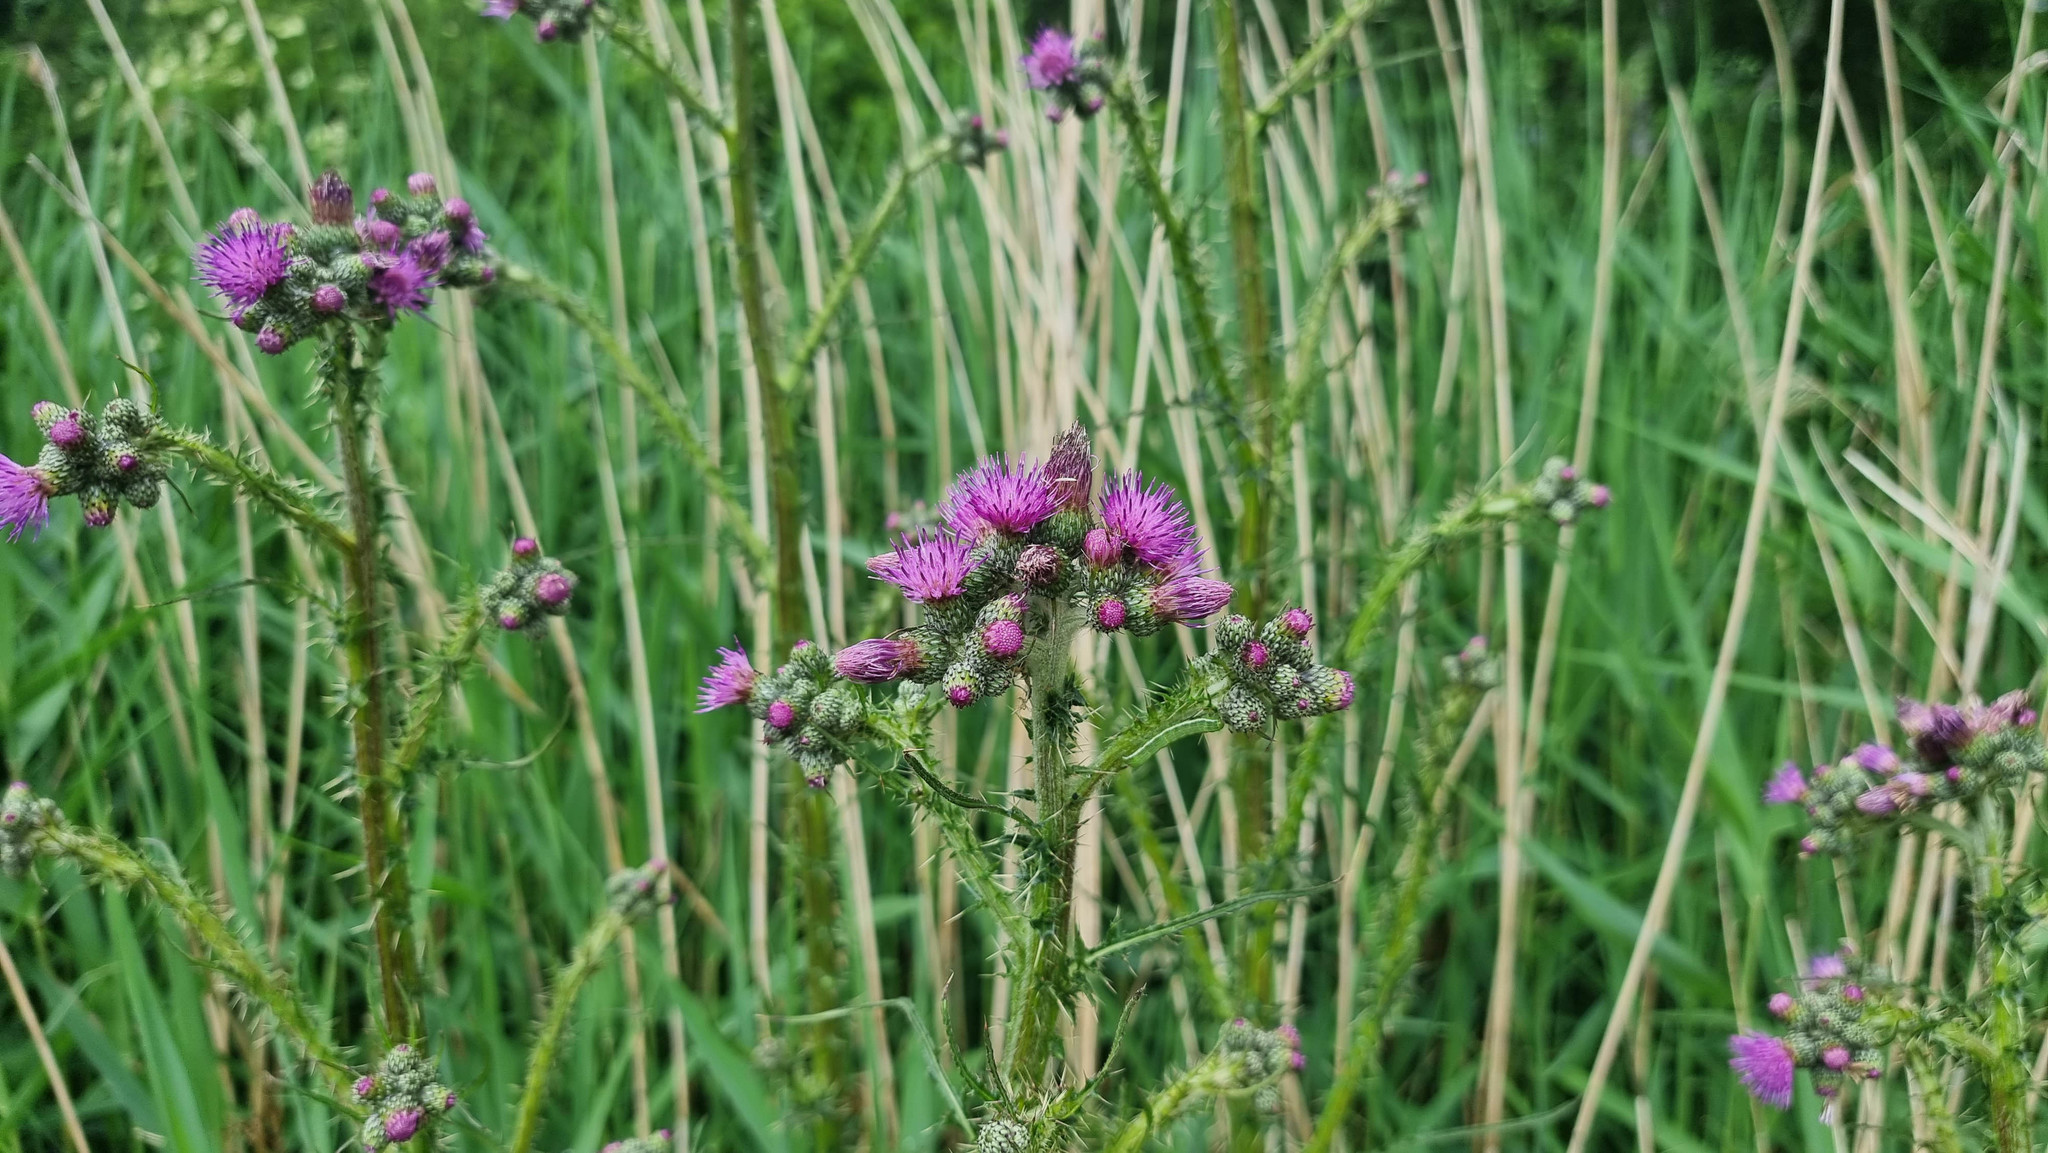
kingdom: Plantae
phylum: Tracheophyta
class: Magnoliopsida
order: Asterales
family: Asteraceae
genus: Cirsium
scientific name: Cirsium palustre
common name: Marsh thistle
